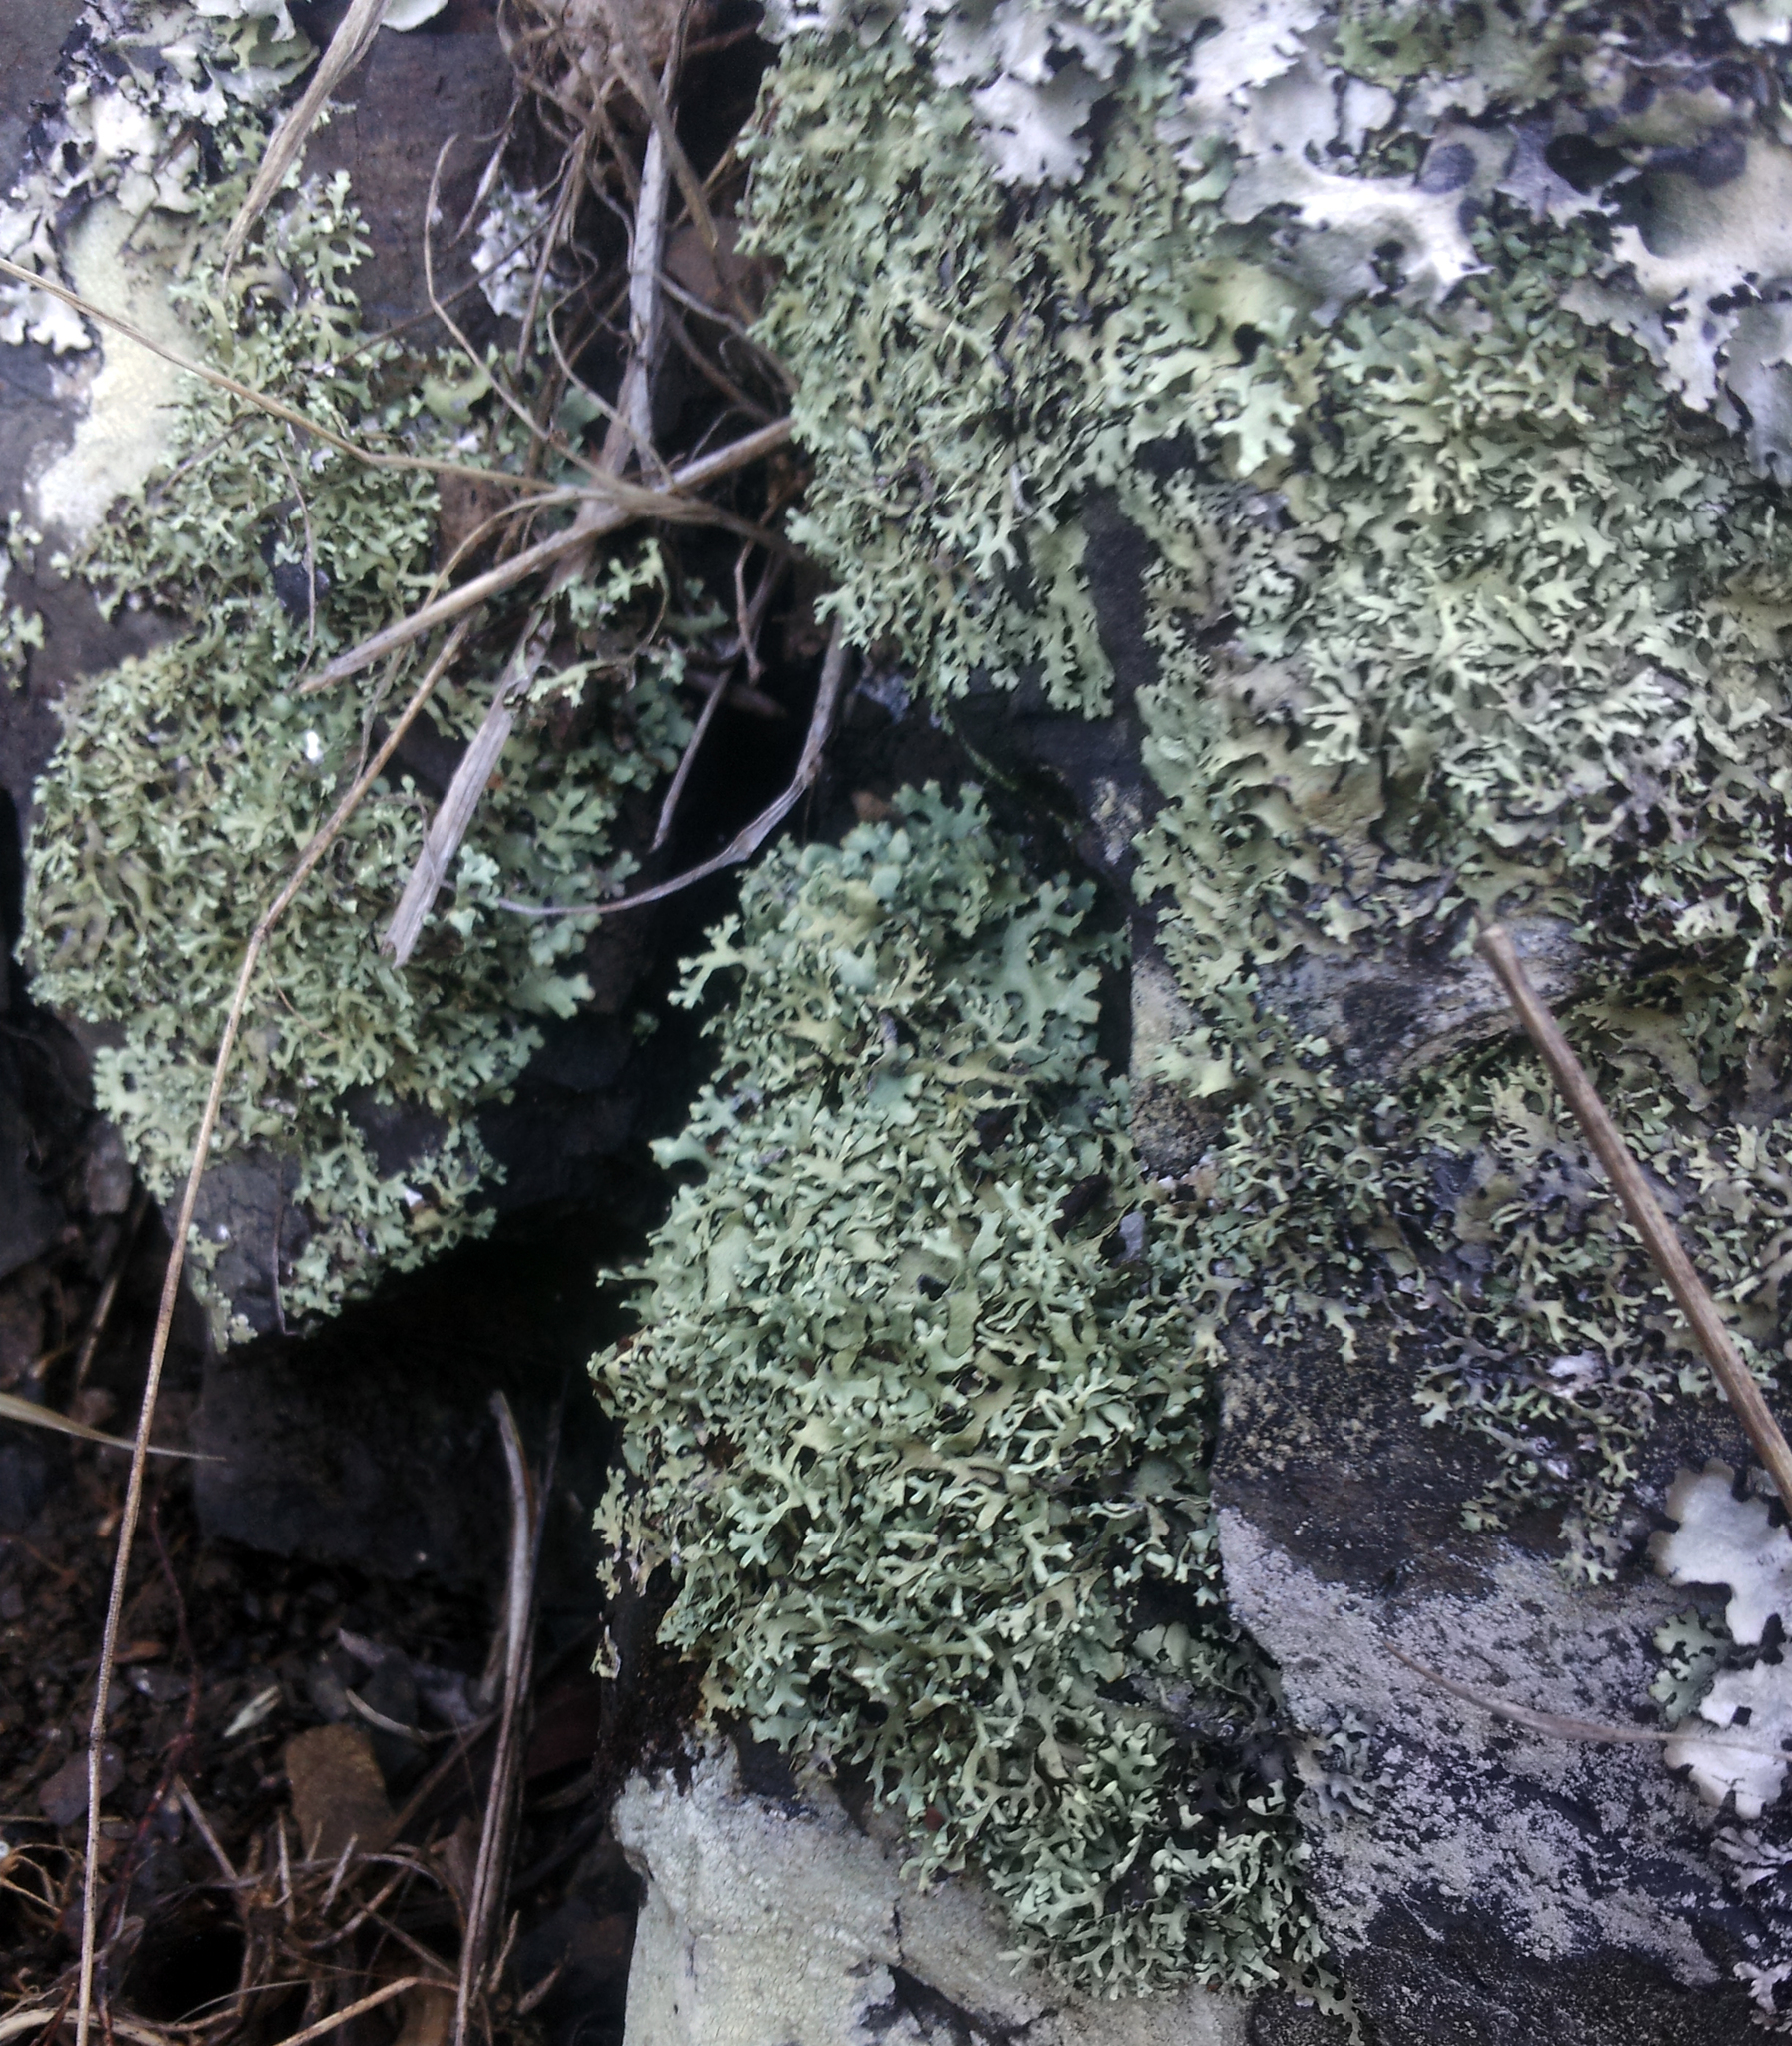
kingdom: Fungi
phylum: Ascomycota
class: Lecanoromycetes
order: Lecanorales
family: Parmeliaceae
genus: Xanthoparmelia
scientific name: Xanthoparmelia furcata
